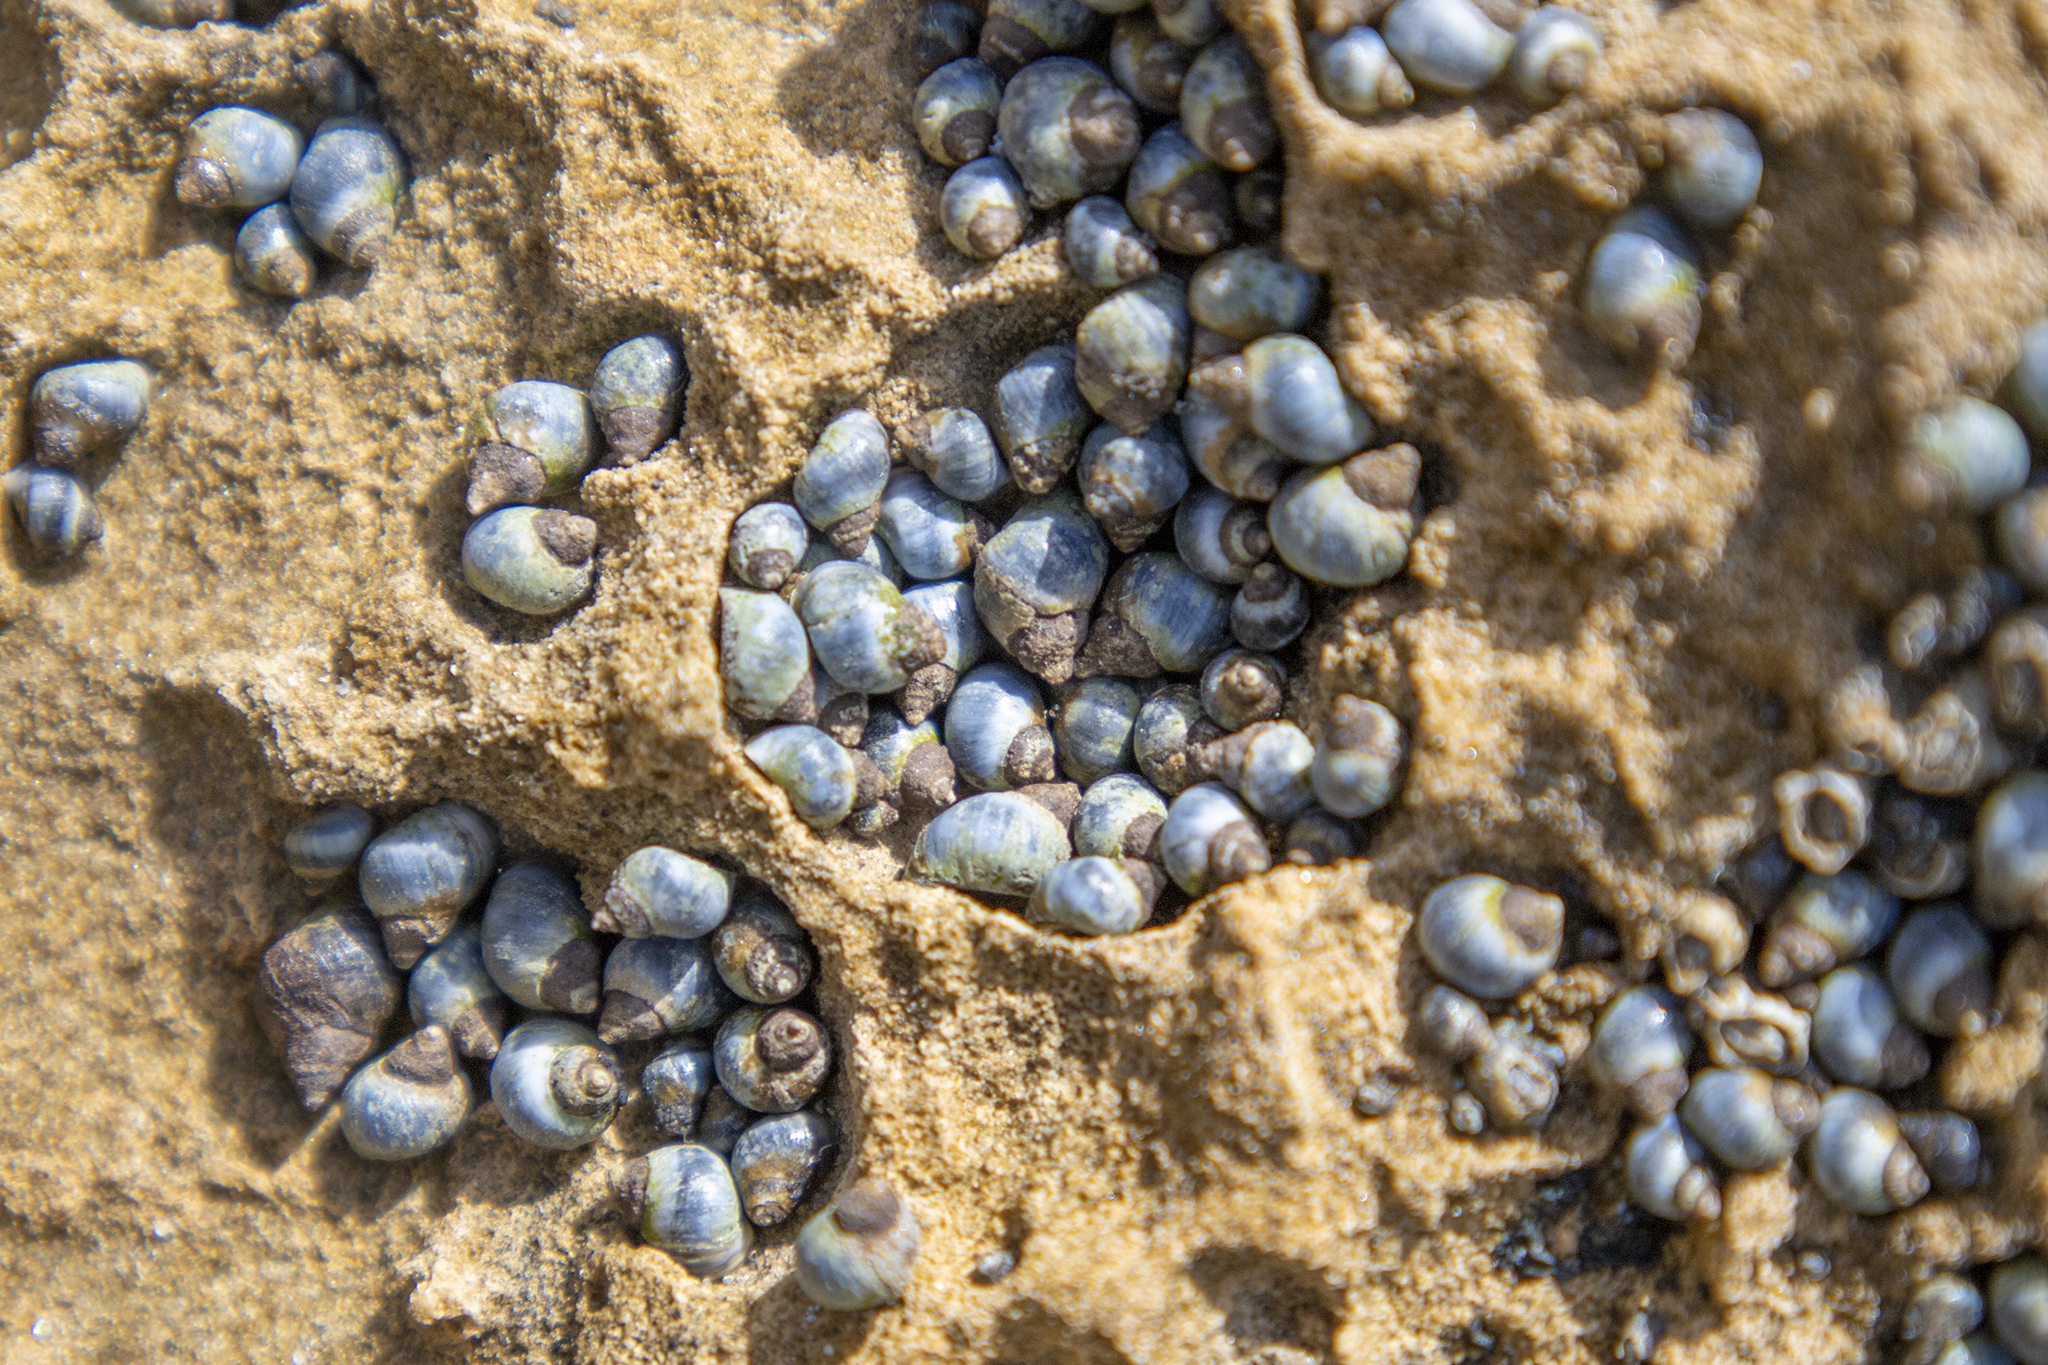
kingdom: Animalia
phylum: Mollusca
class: Gastropoda
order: Littorinimorpha
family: Littorinidae
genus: Austrolittorina
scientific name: Austrolittorina antipodum
